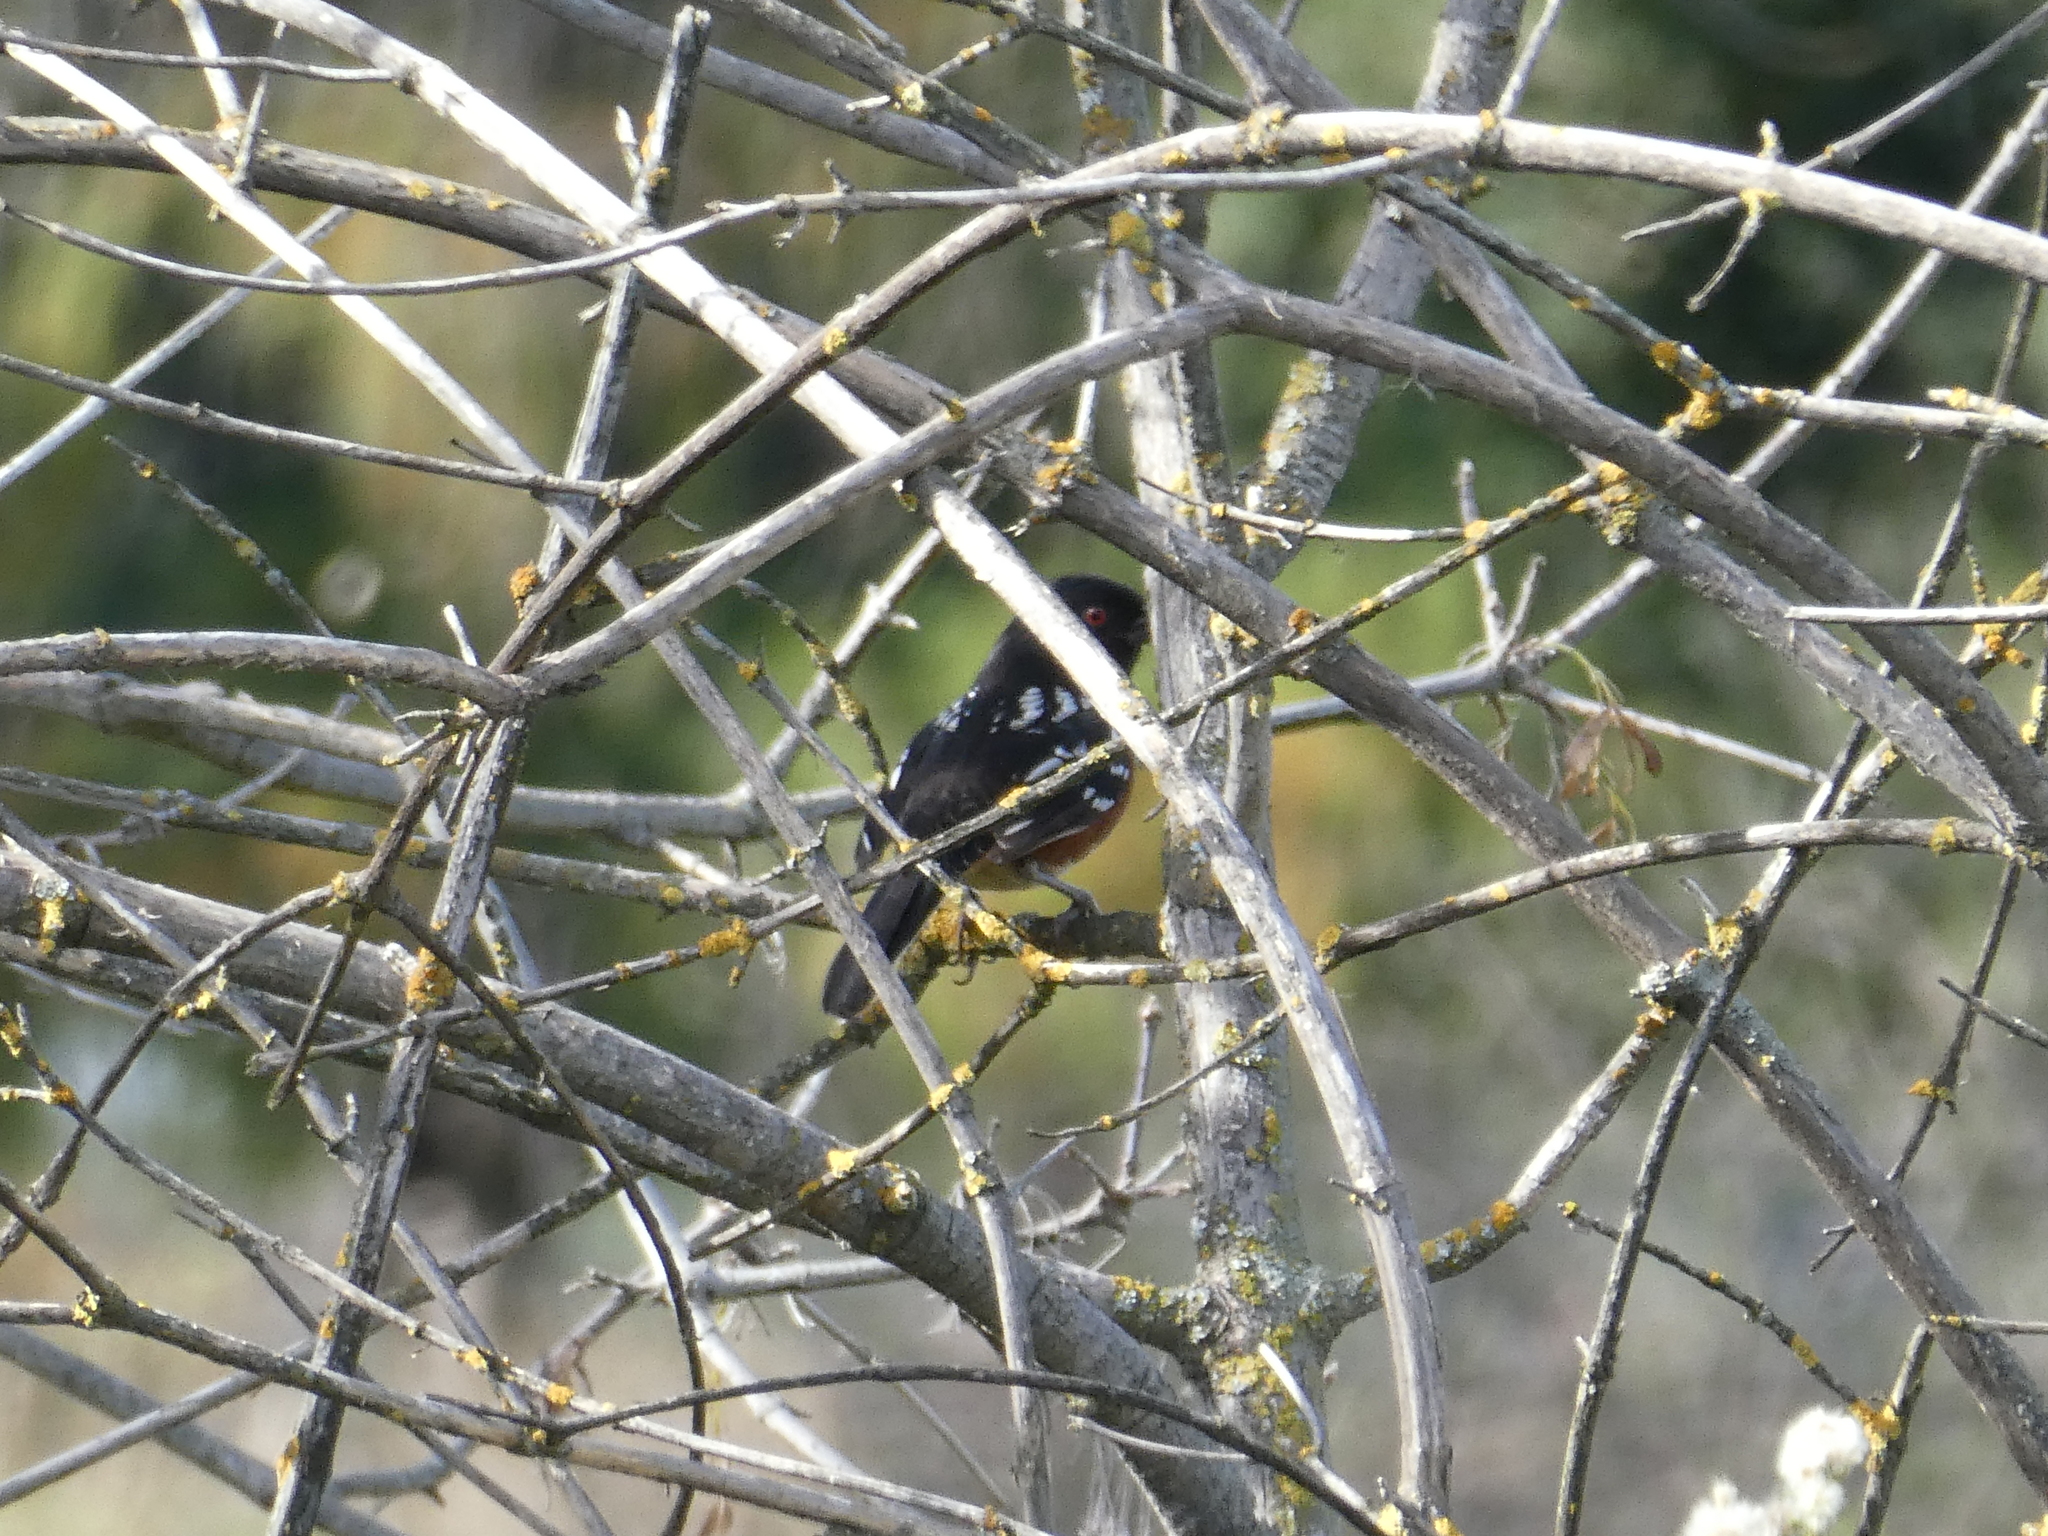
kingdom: Animalia
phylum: Chordata
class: Aves
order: Passeriformes
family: Passerellidae
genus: Pipilo
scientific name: Pipilo maculatus
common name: Spotted towhee
